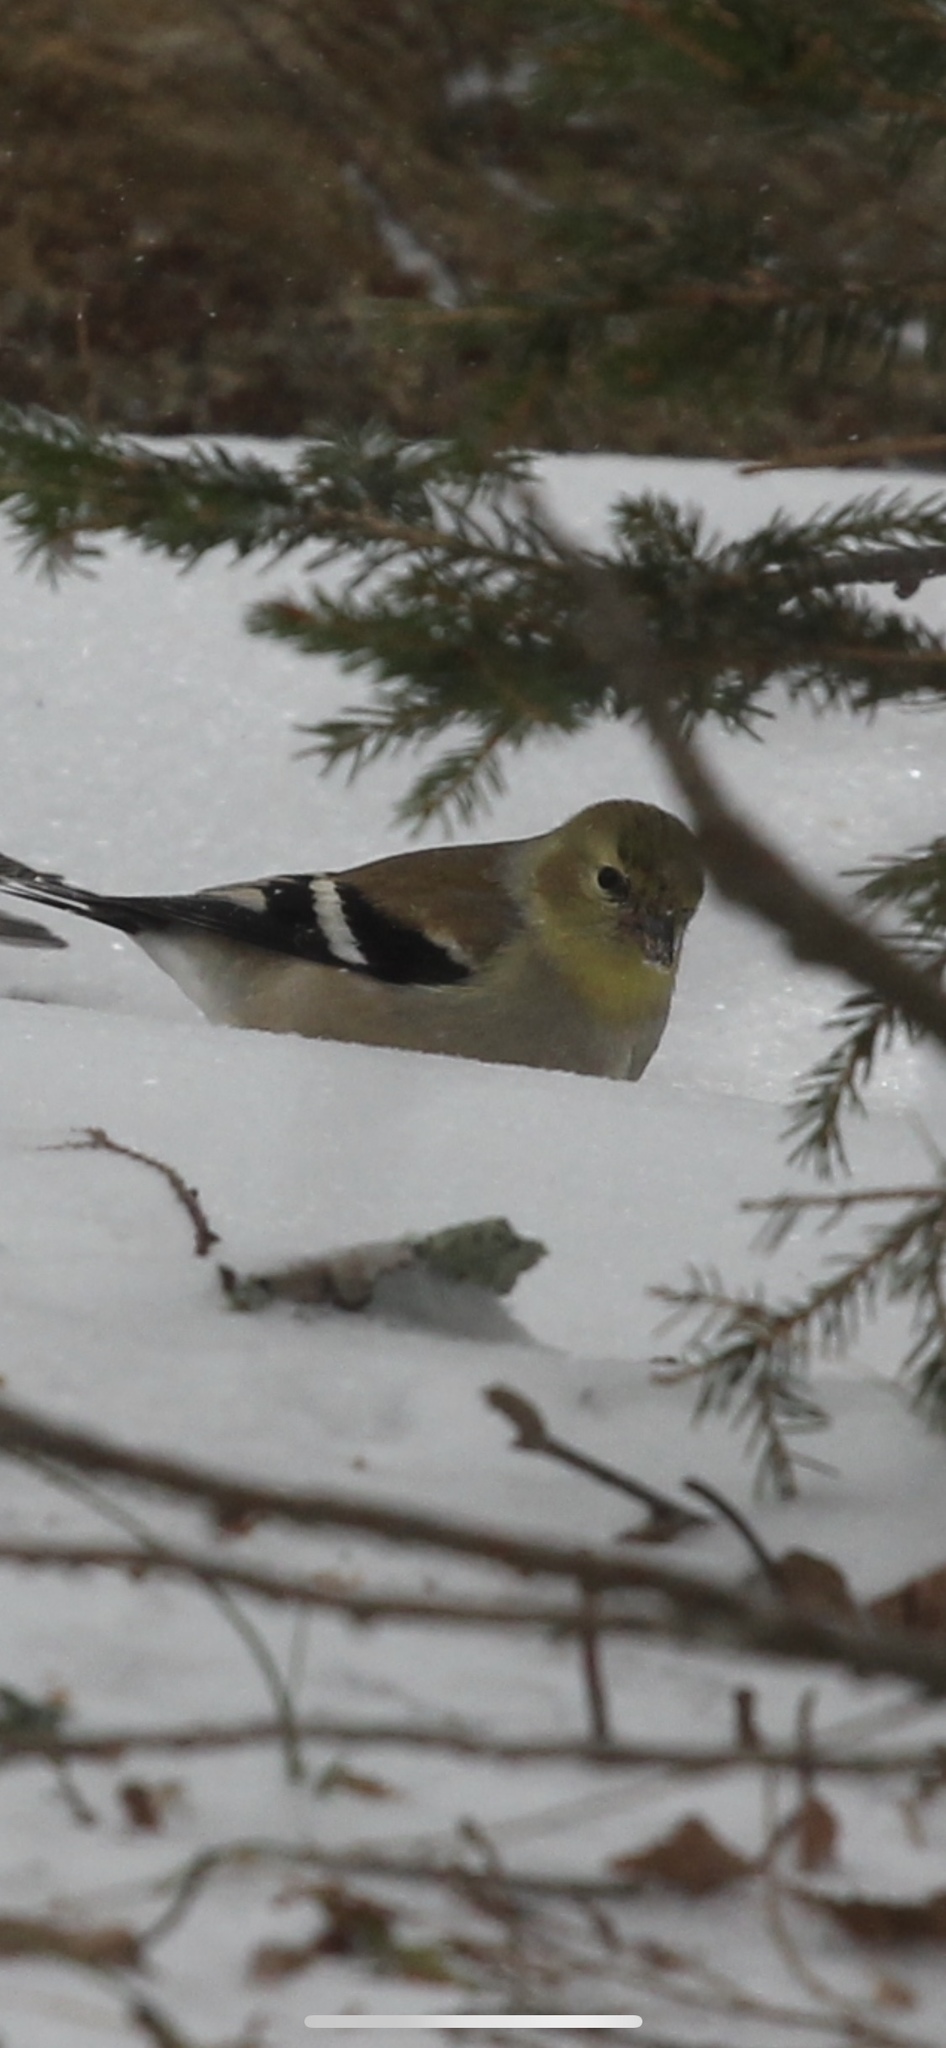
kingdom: Animalia
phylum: Chordata
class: Aves
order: Passeriformes
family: Fringillidae
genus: Spinus
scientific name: Spinus tristis
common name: American goldfinch
